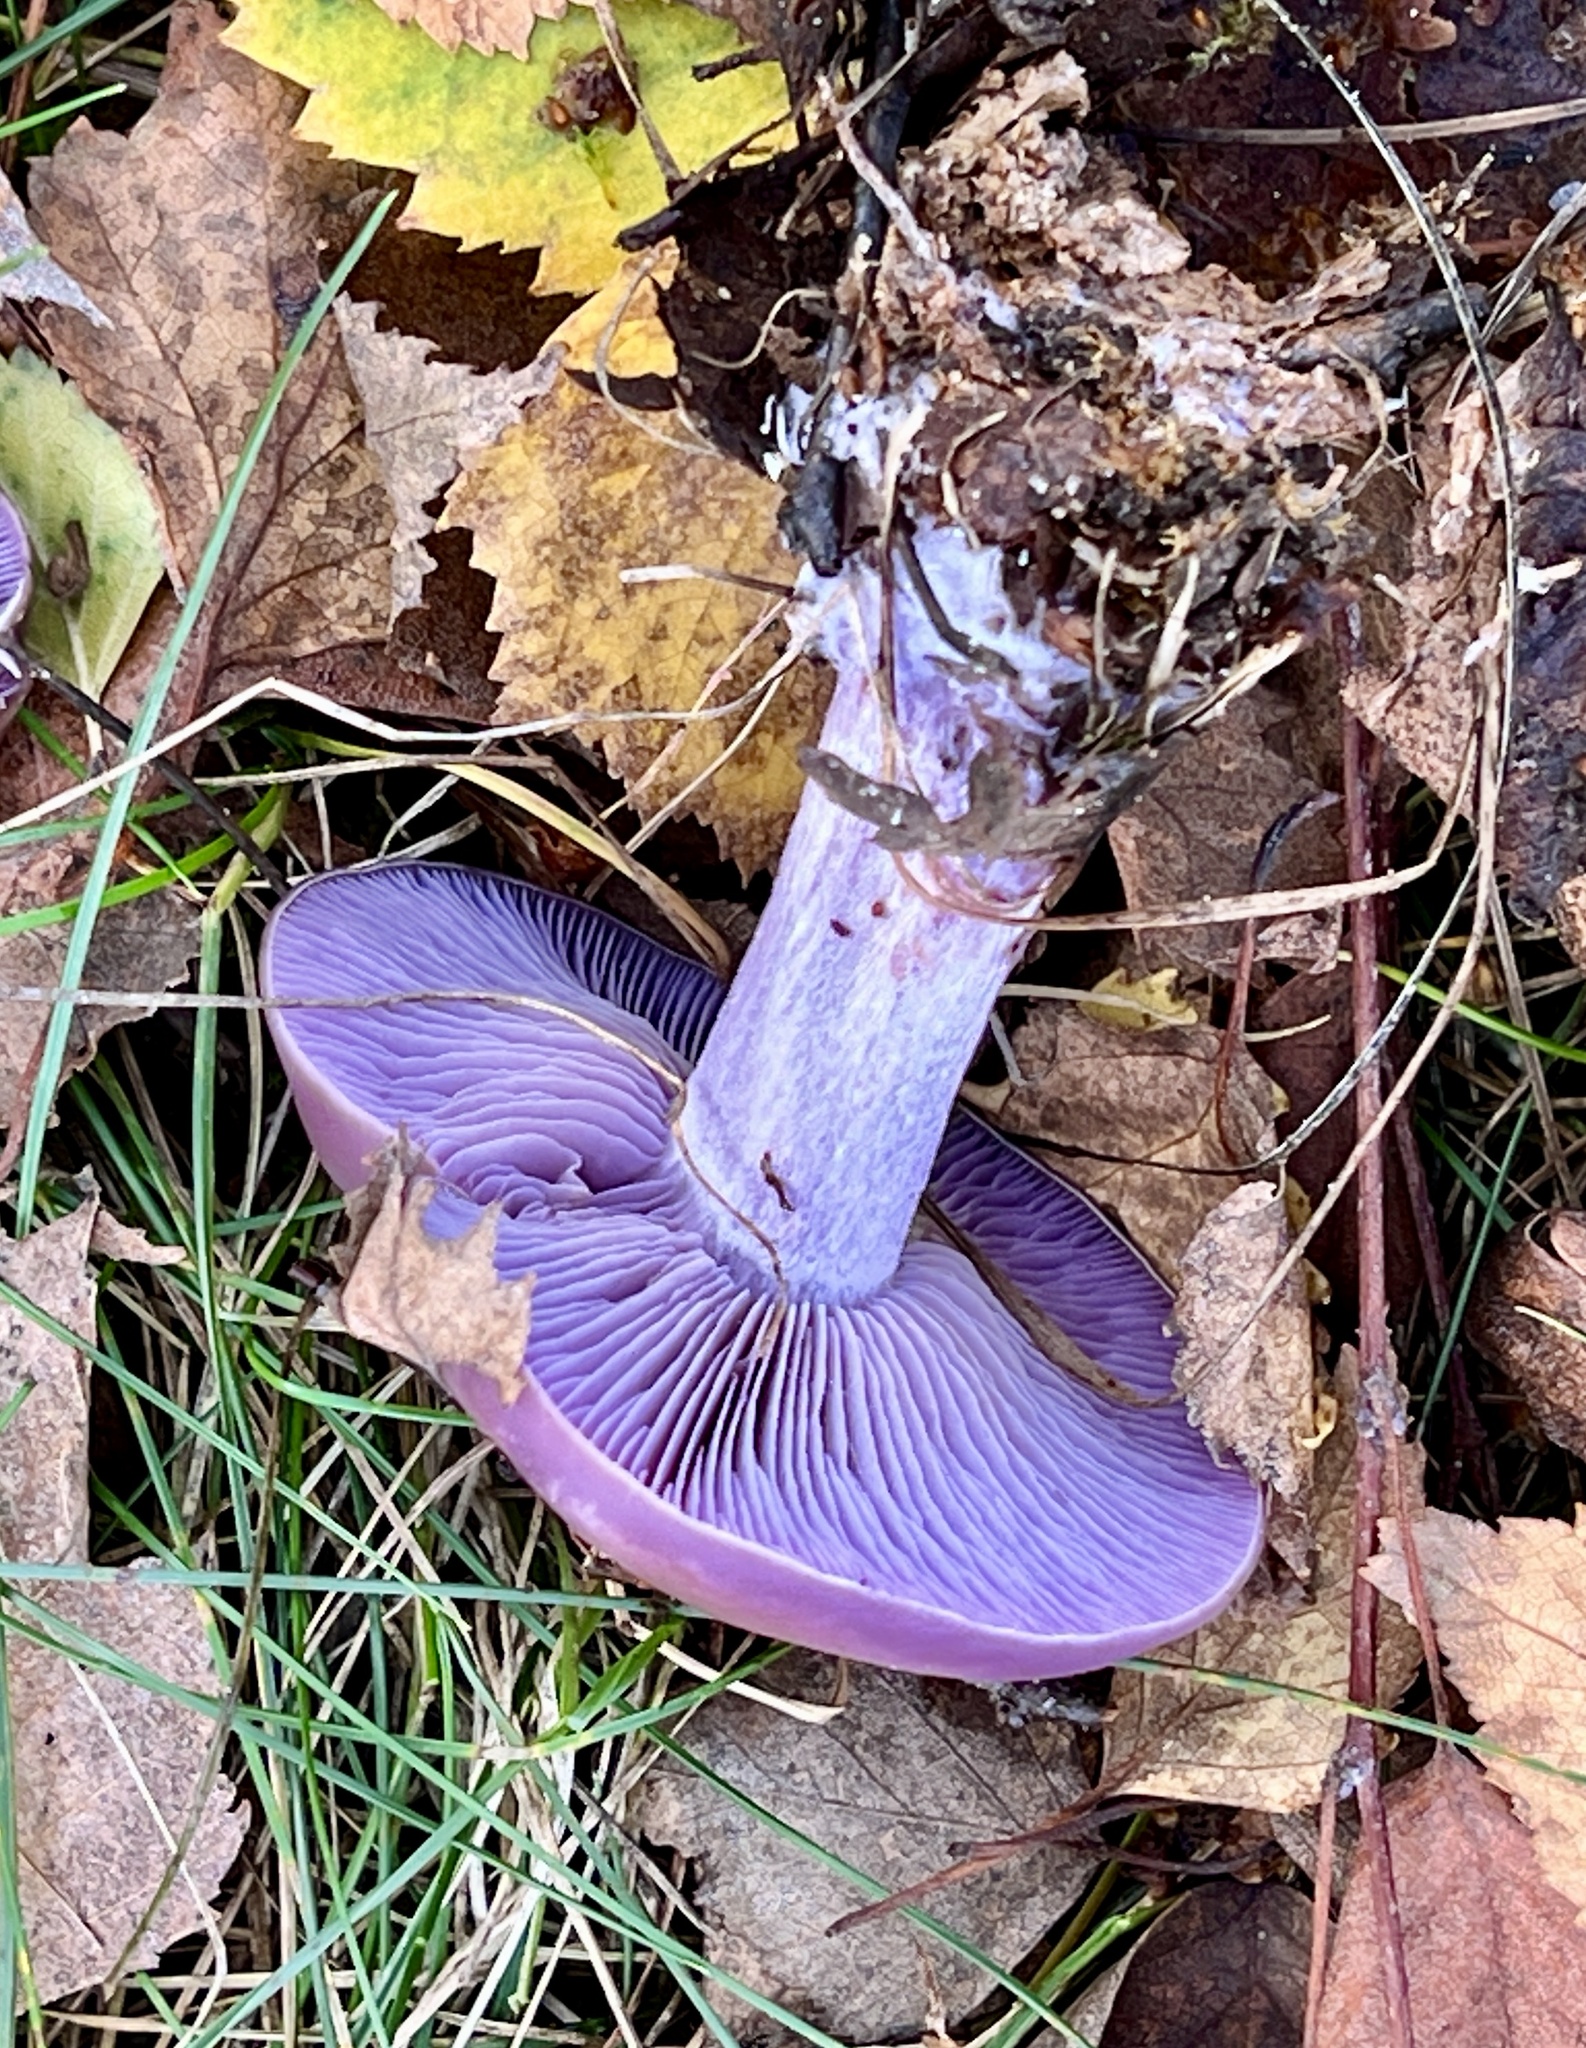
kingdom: Fungi
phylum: Basidiomycota
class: Agaricomycetes
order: Agaricales
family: Tricholomataceae
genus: Collybia
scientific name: Collybia
